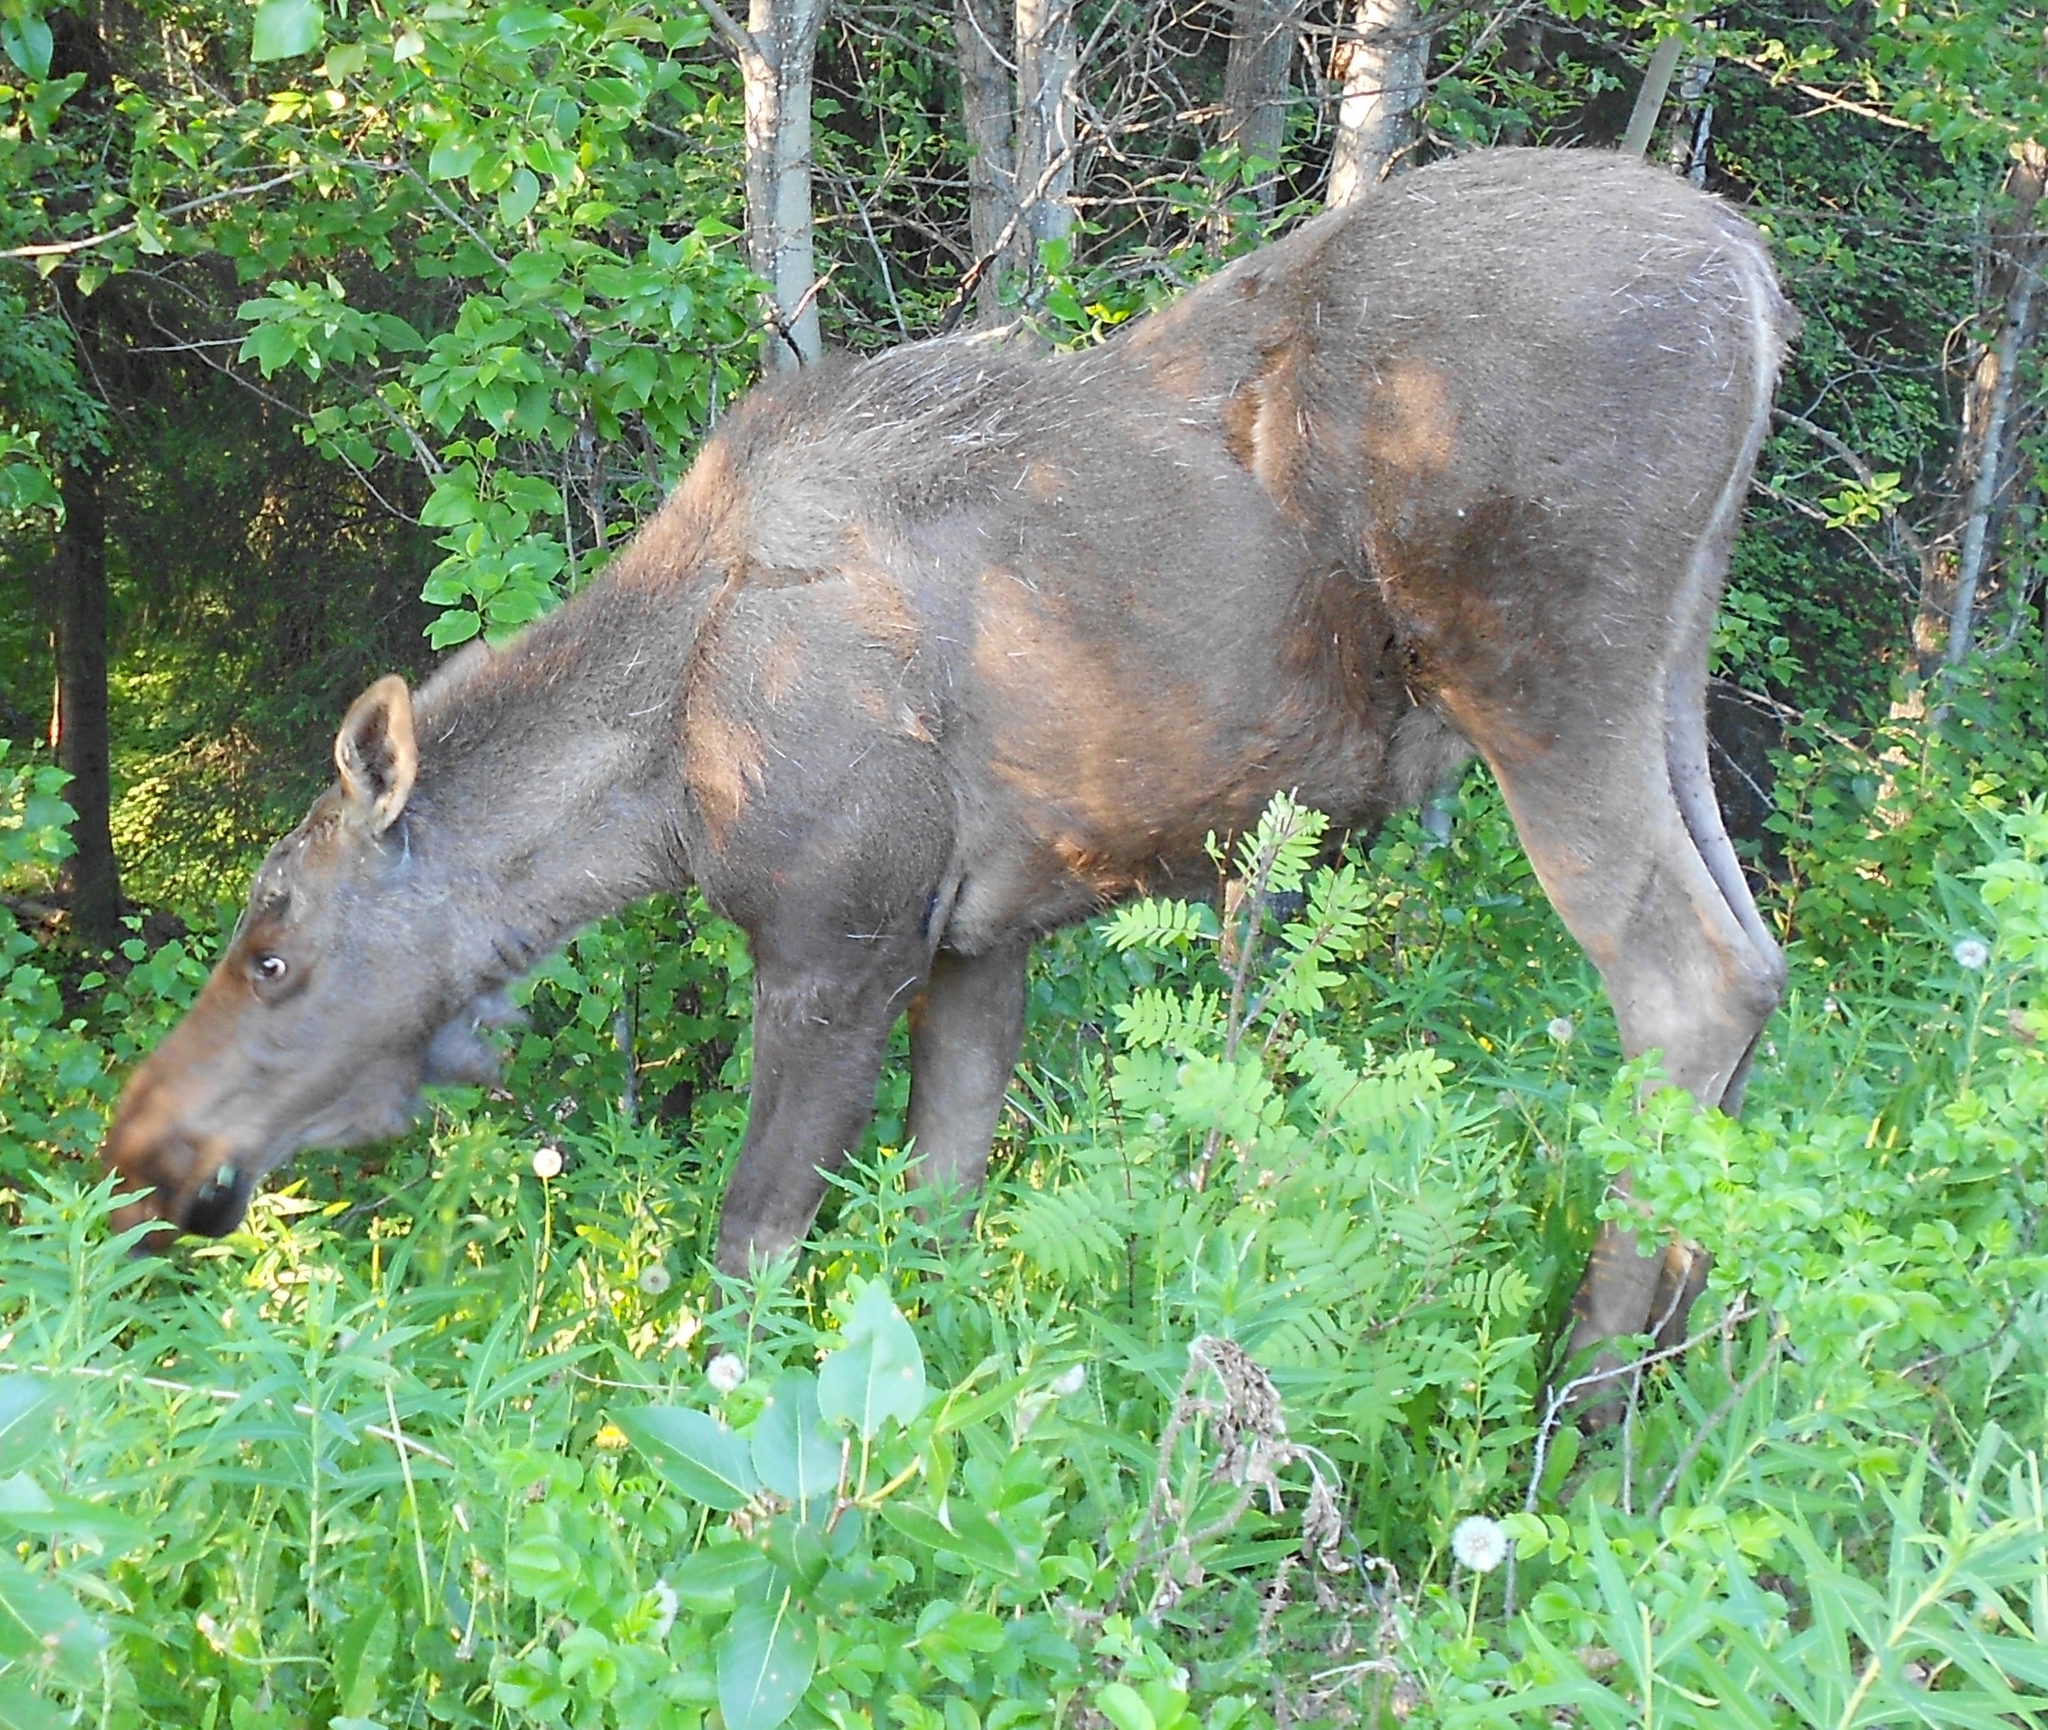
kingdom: Animalia
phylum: Chordata
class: Mammalia
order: Artiodactyla
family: Cervidae
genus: Alces
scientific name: Alces alces
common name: Moose
